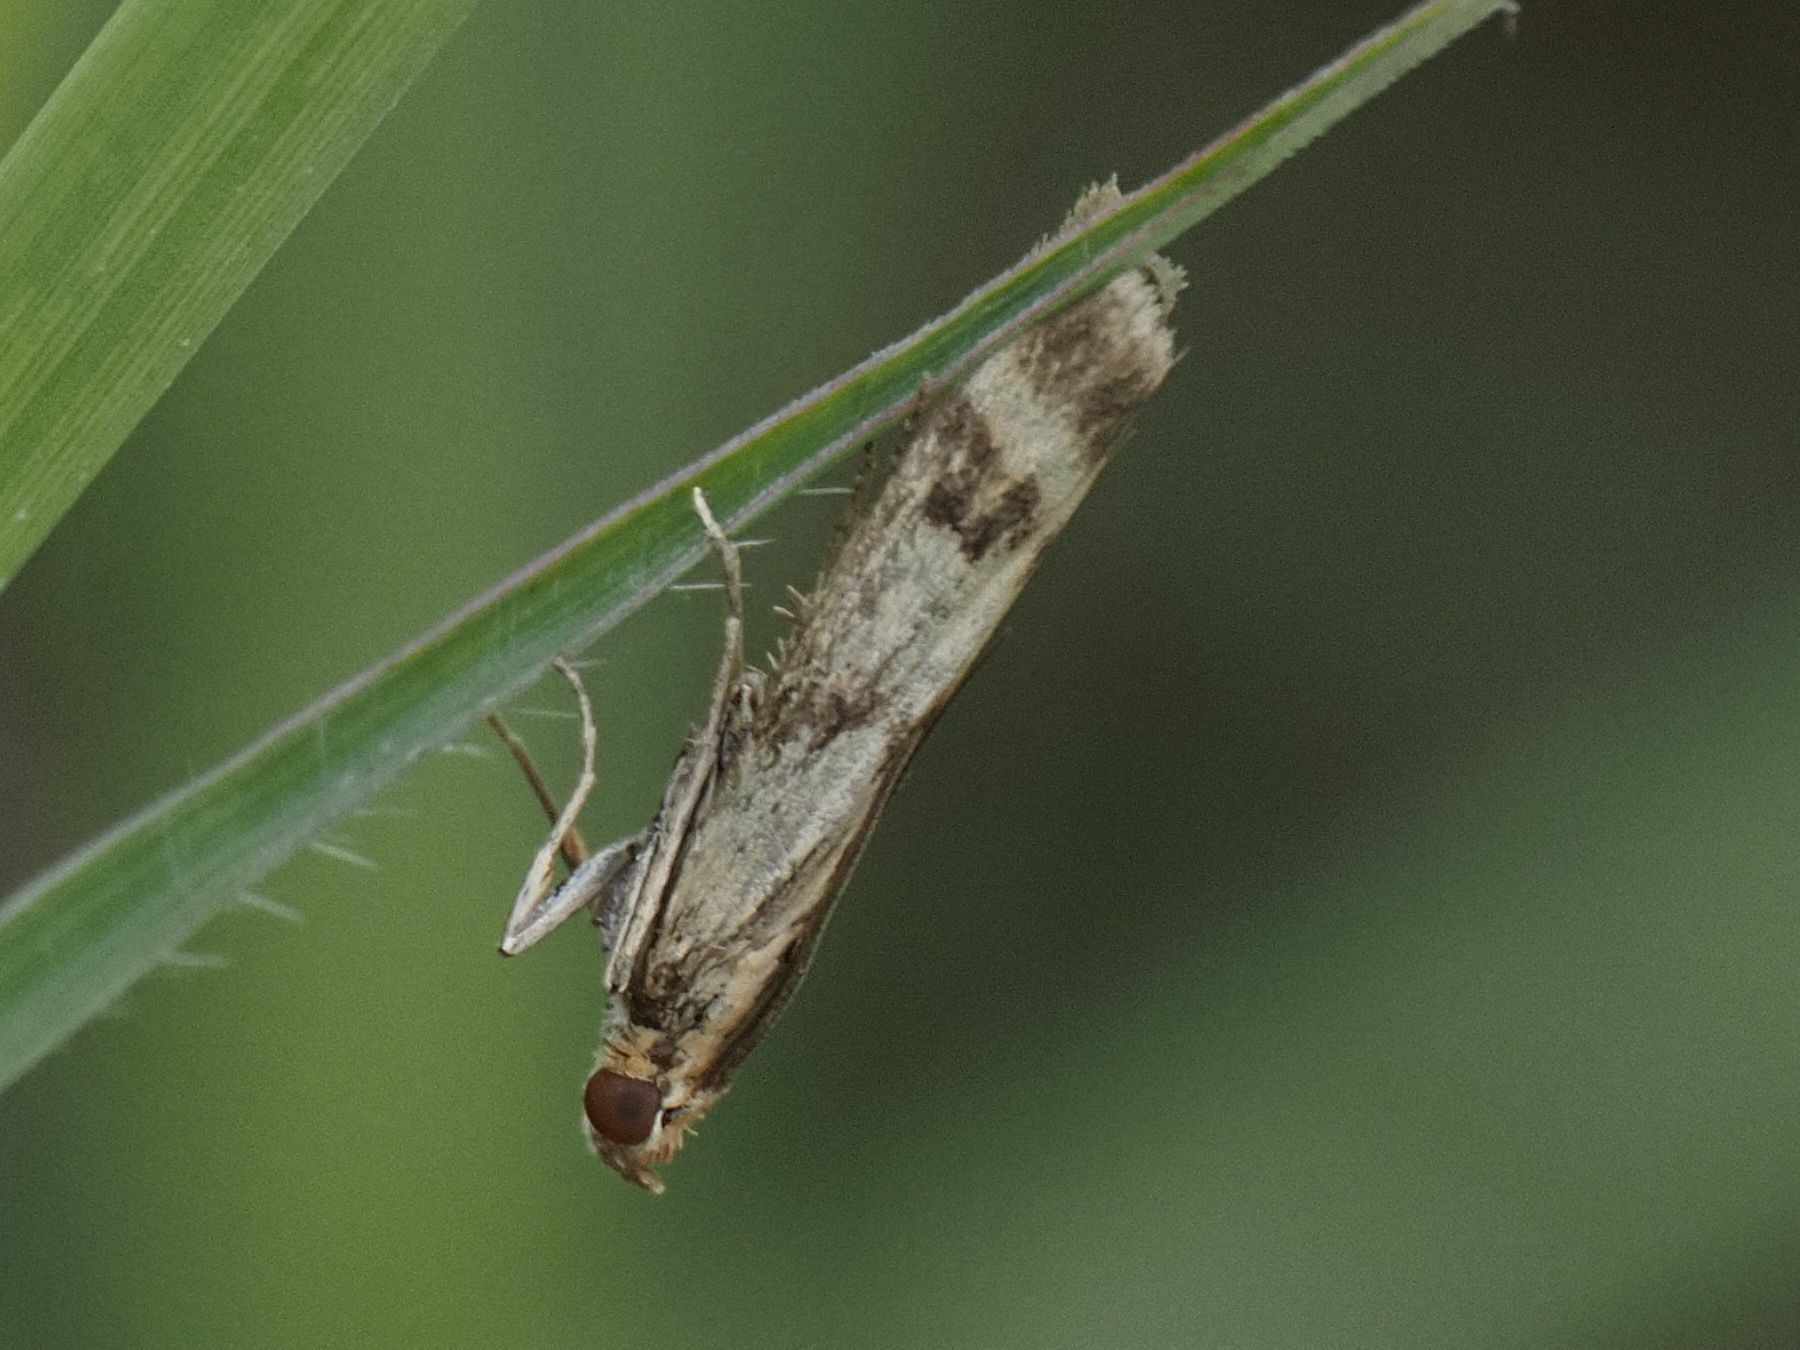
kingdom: Animalia
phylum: Arthropoda
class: Insecta
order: Lepidoptera
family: Pyralidae
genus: Homoeosoma
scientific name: Homoeosoma sinuella
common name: Twin-barred knot-horn
